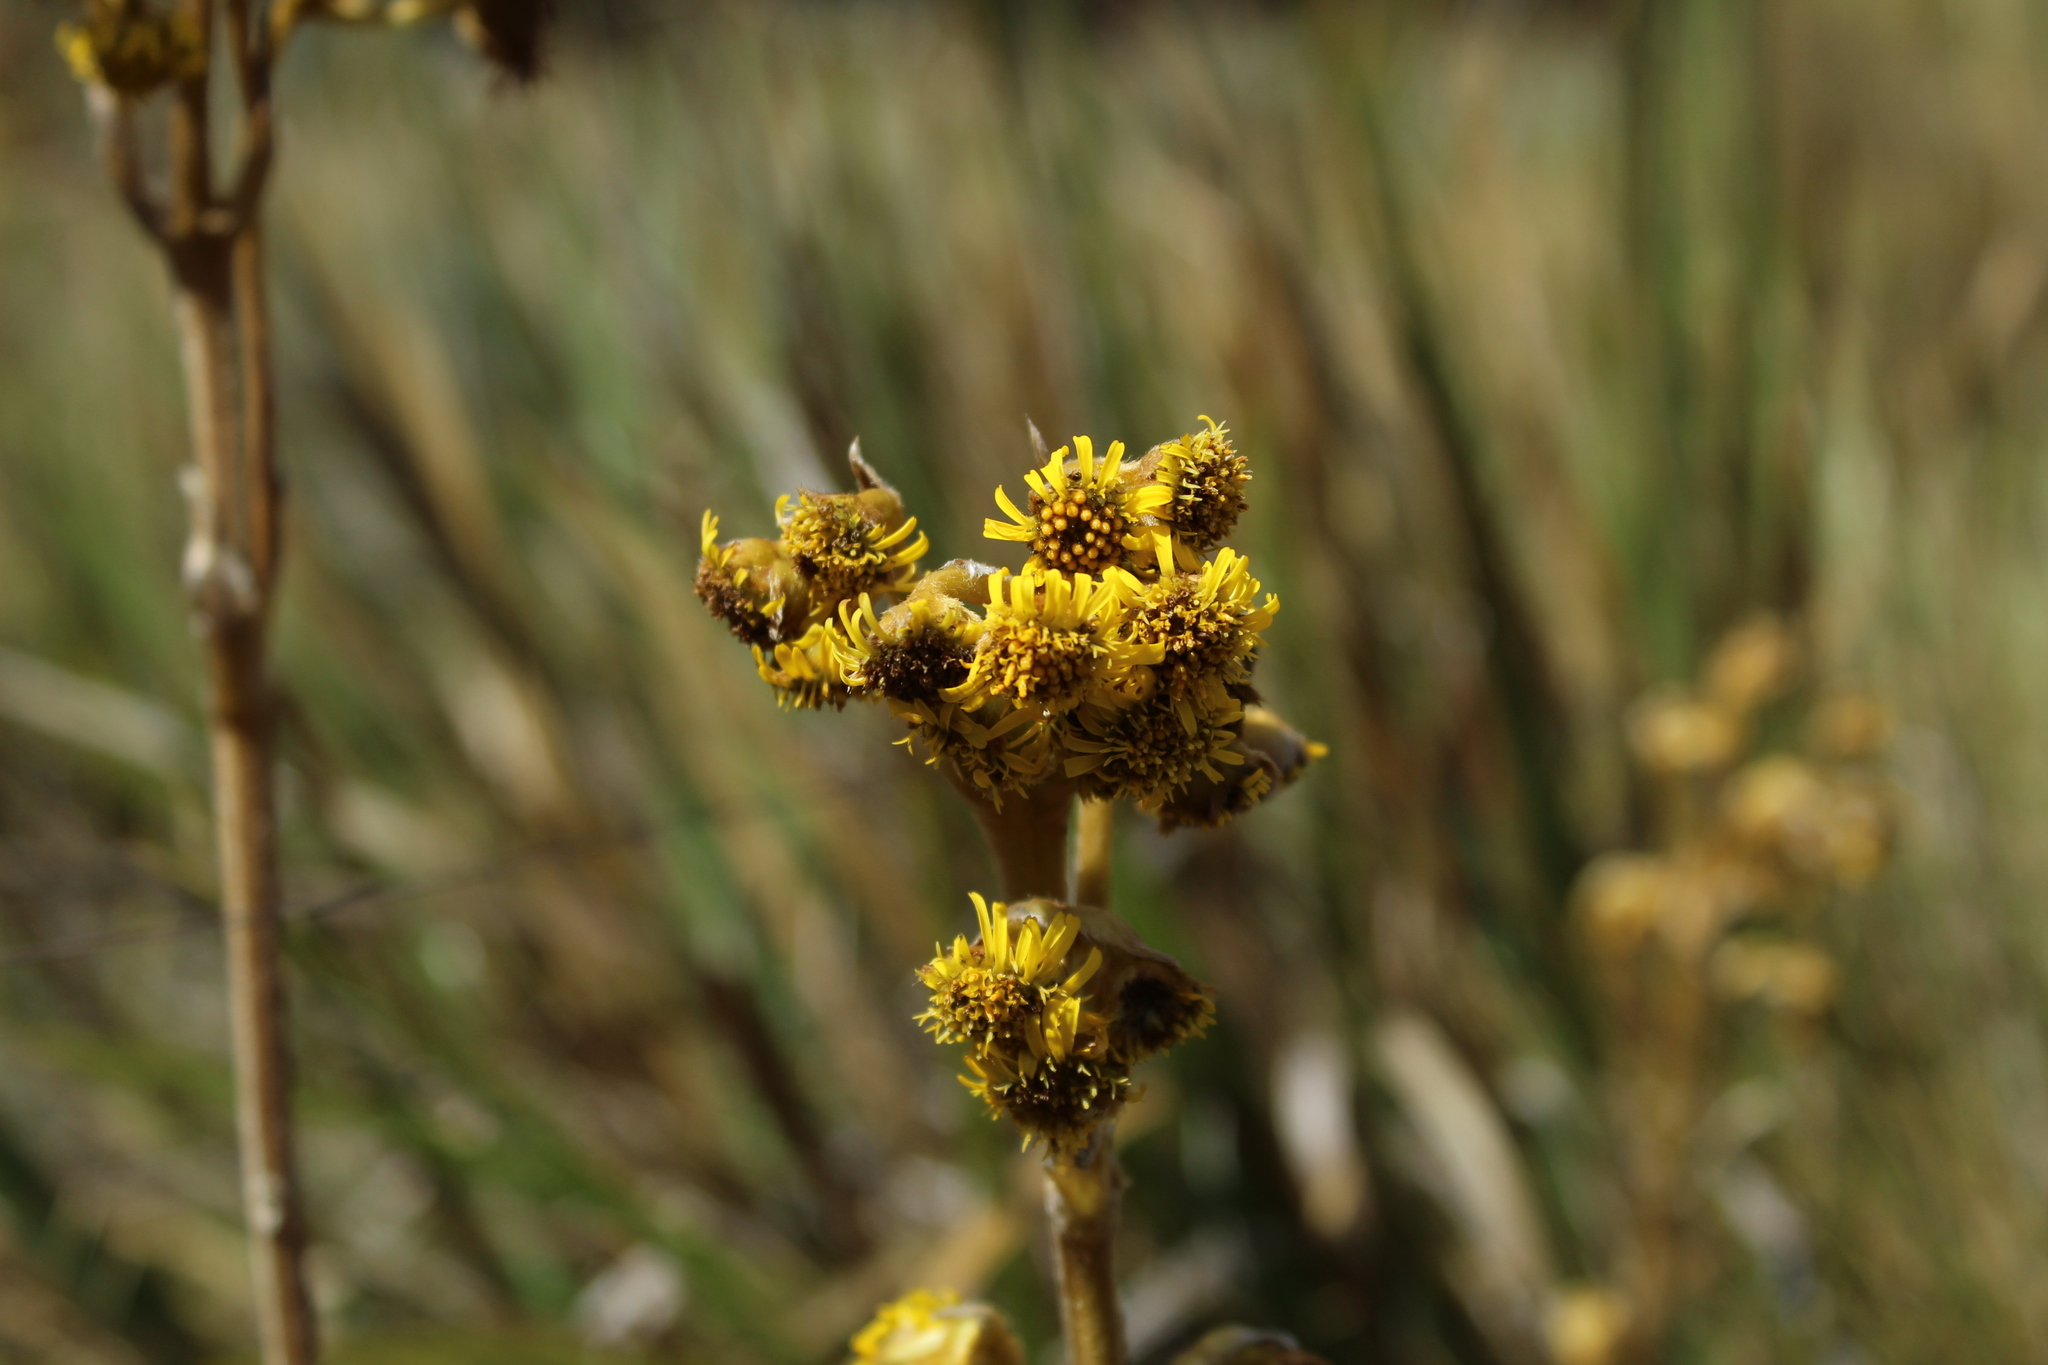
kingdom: Plantae
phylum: Tracheophyta
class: Magnoliopsida
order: Asterales
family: Asteraceae
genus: Espeletia
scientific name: Espeletia boyacensis
